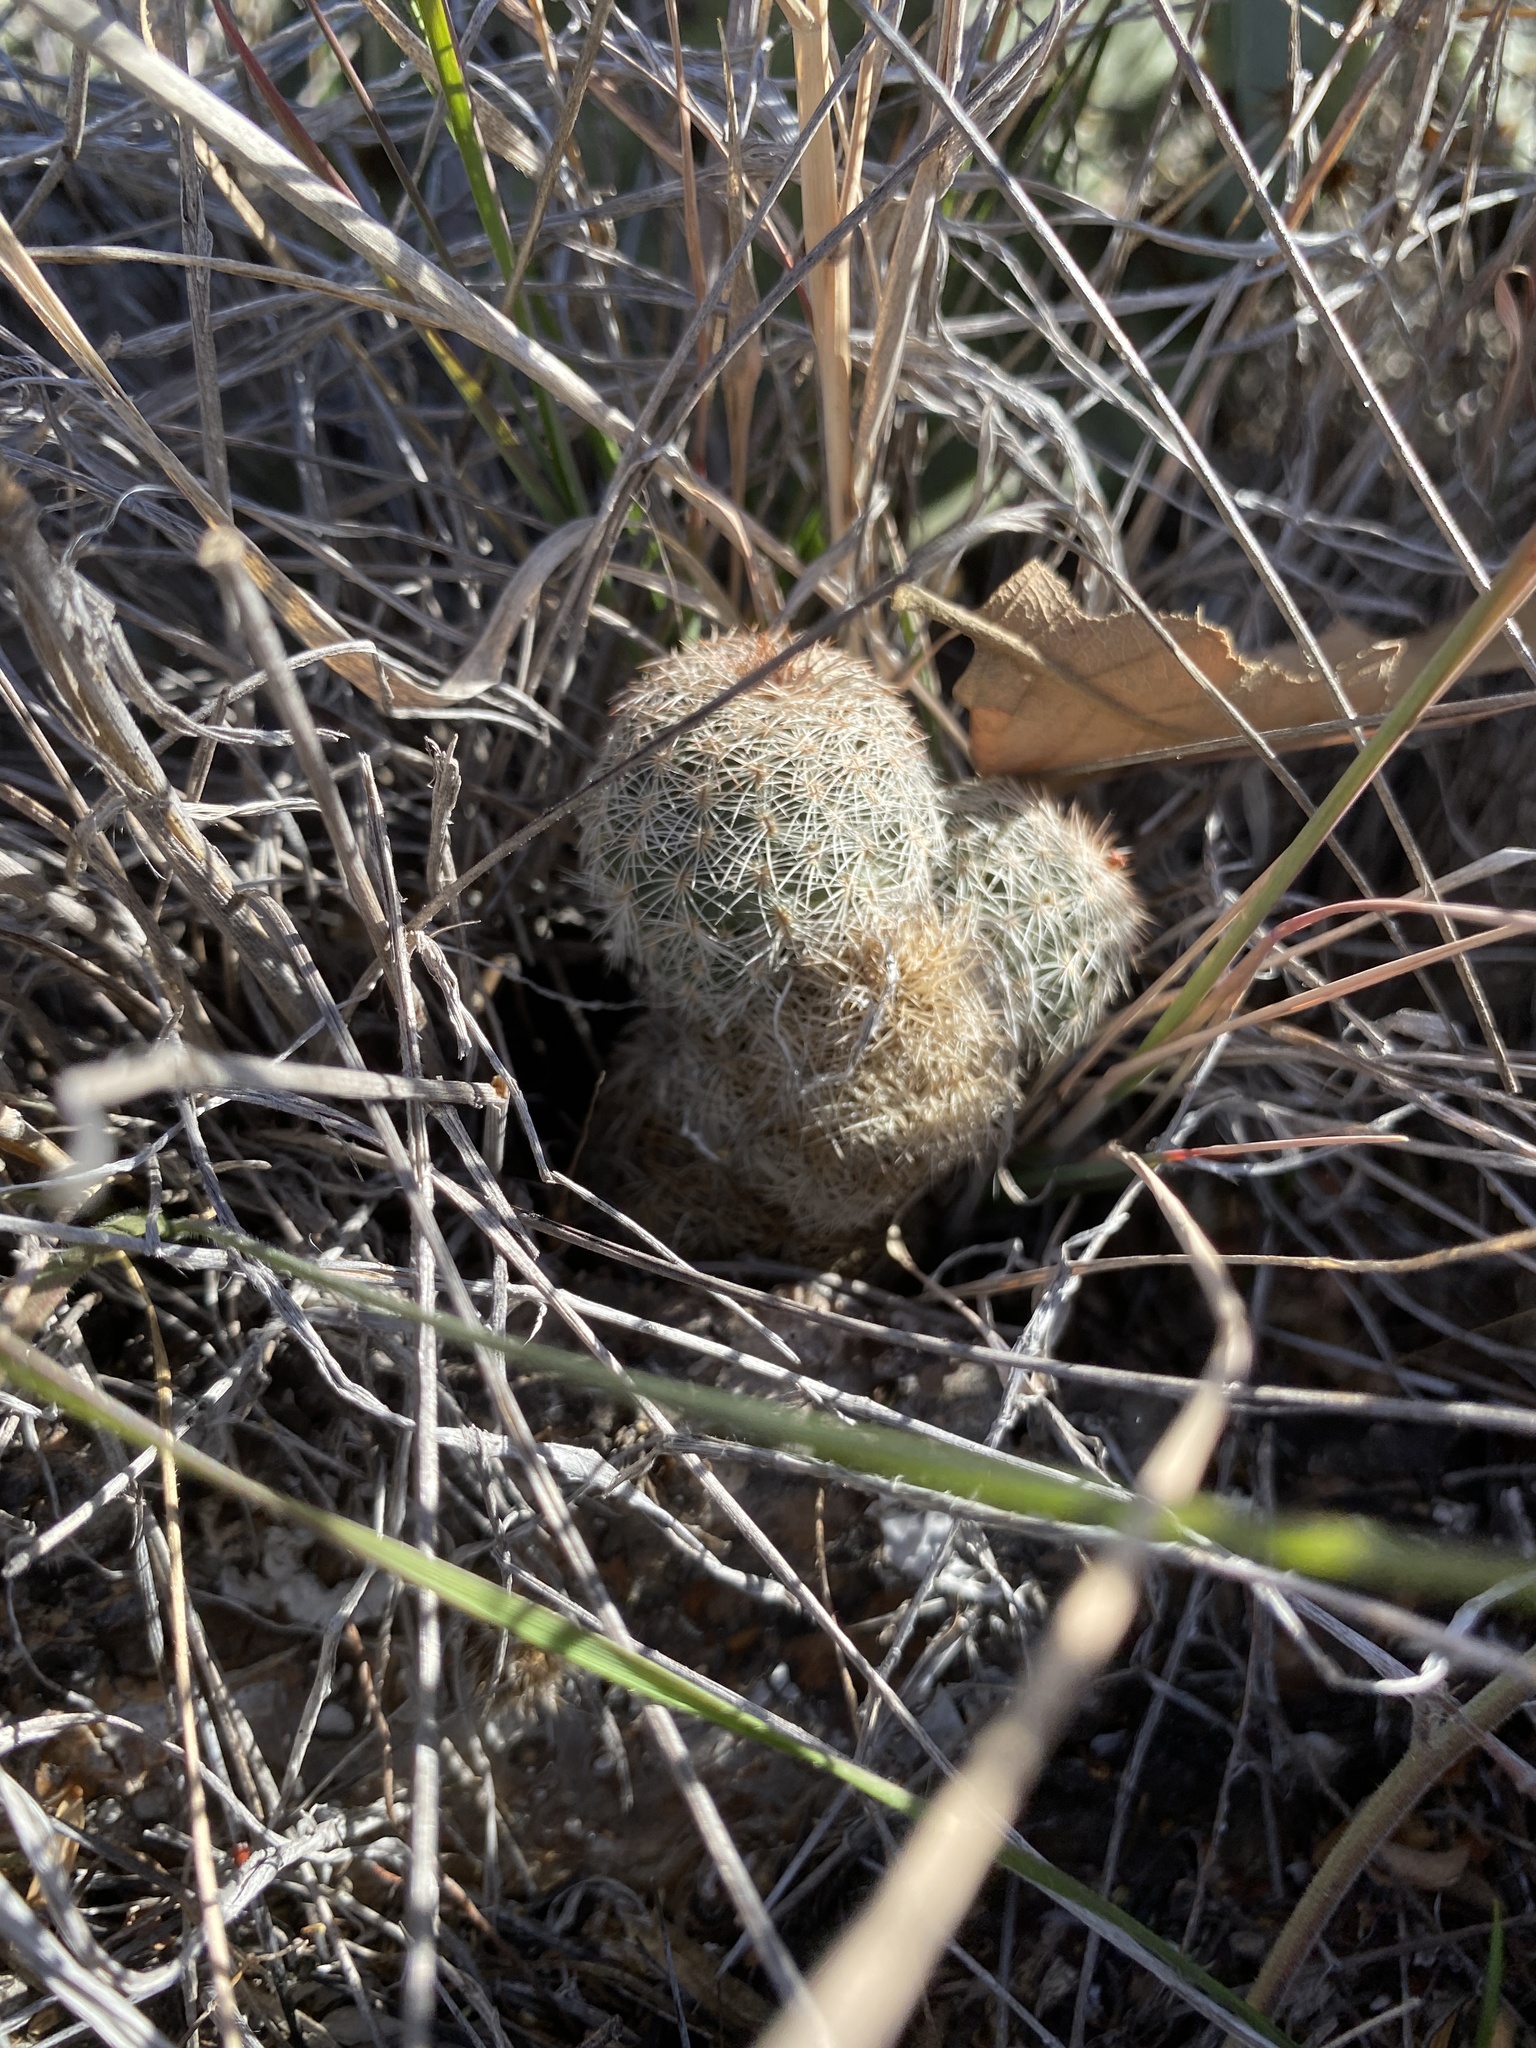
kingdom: Plantae
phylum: Tracheophyta
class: Magnoliopsida
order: Caryophyllales
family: Cactaceae
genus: Echinocereus
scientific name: Echinocereus reichenbachii
